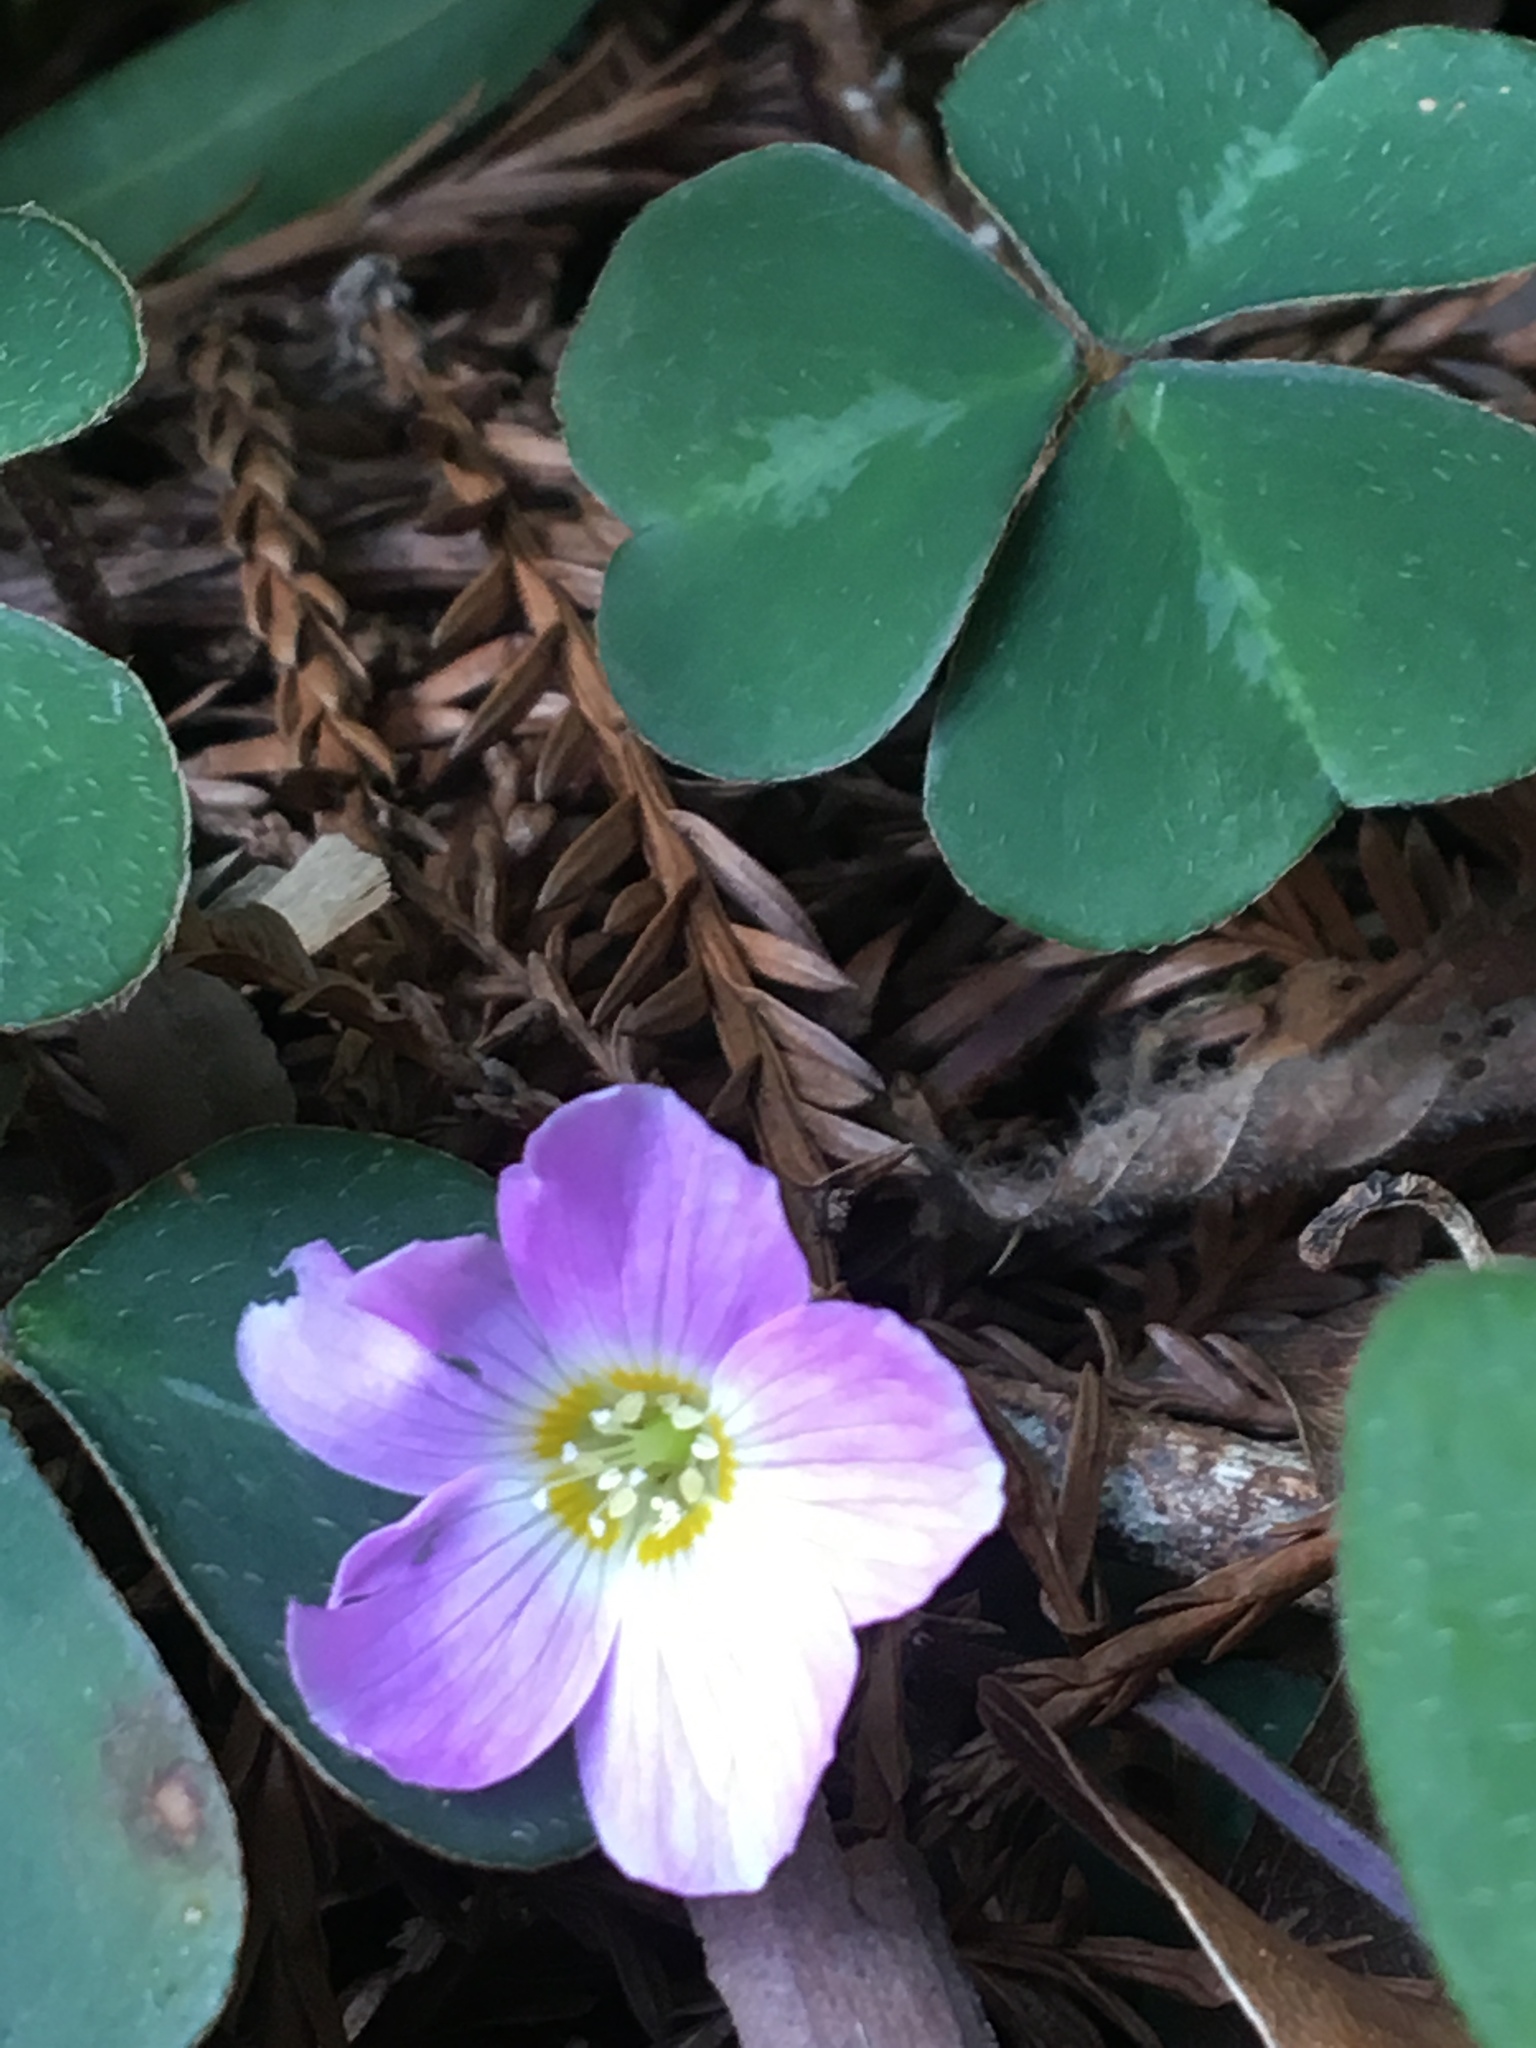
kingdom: Plantae
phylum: Tracheophyta
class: Magnoliopsida
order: Oxalidales
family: Oxalidaceae
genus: Oxalis
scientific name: Oxalis oregana
